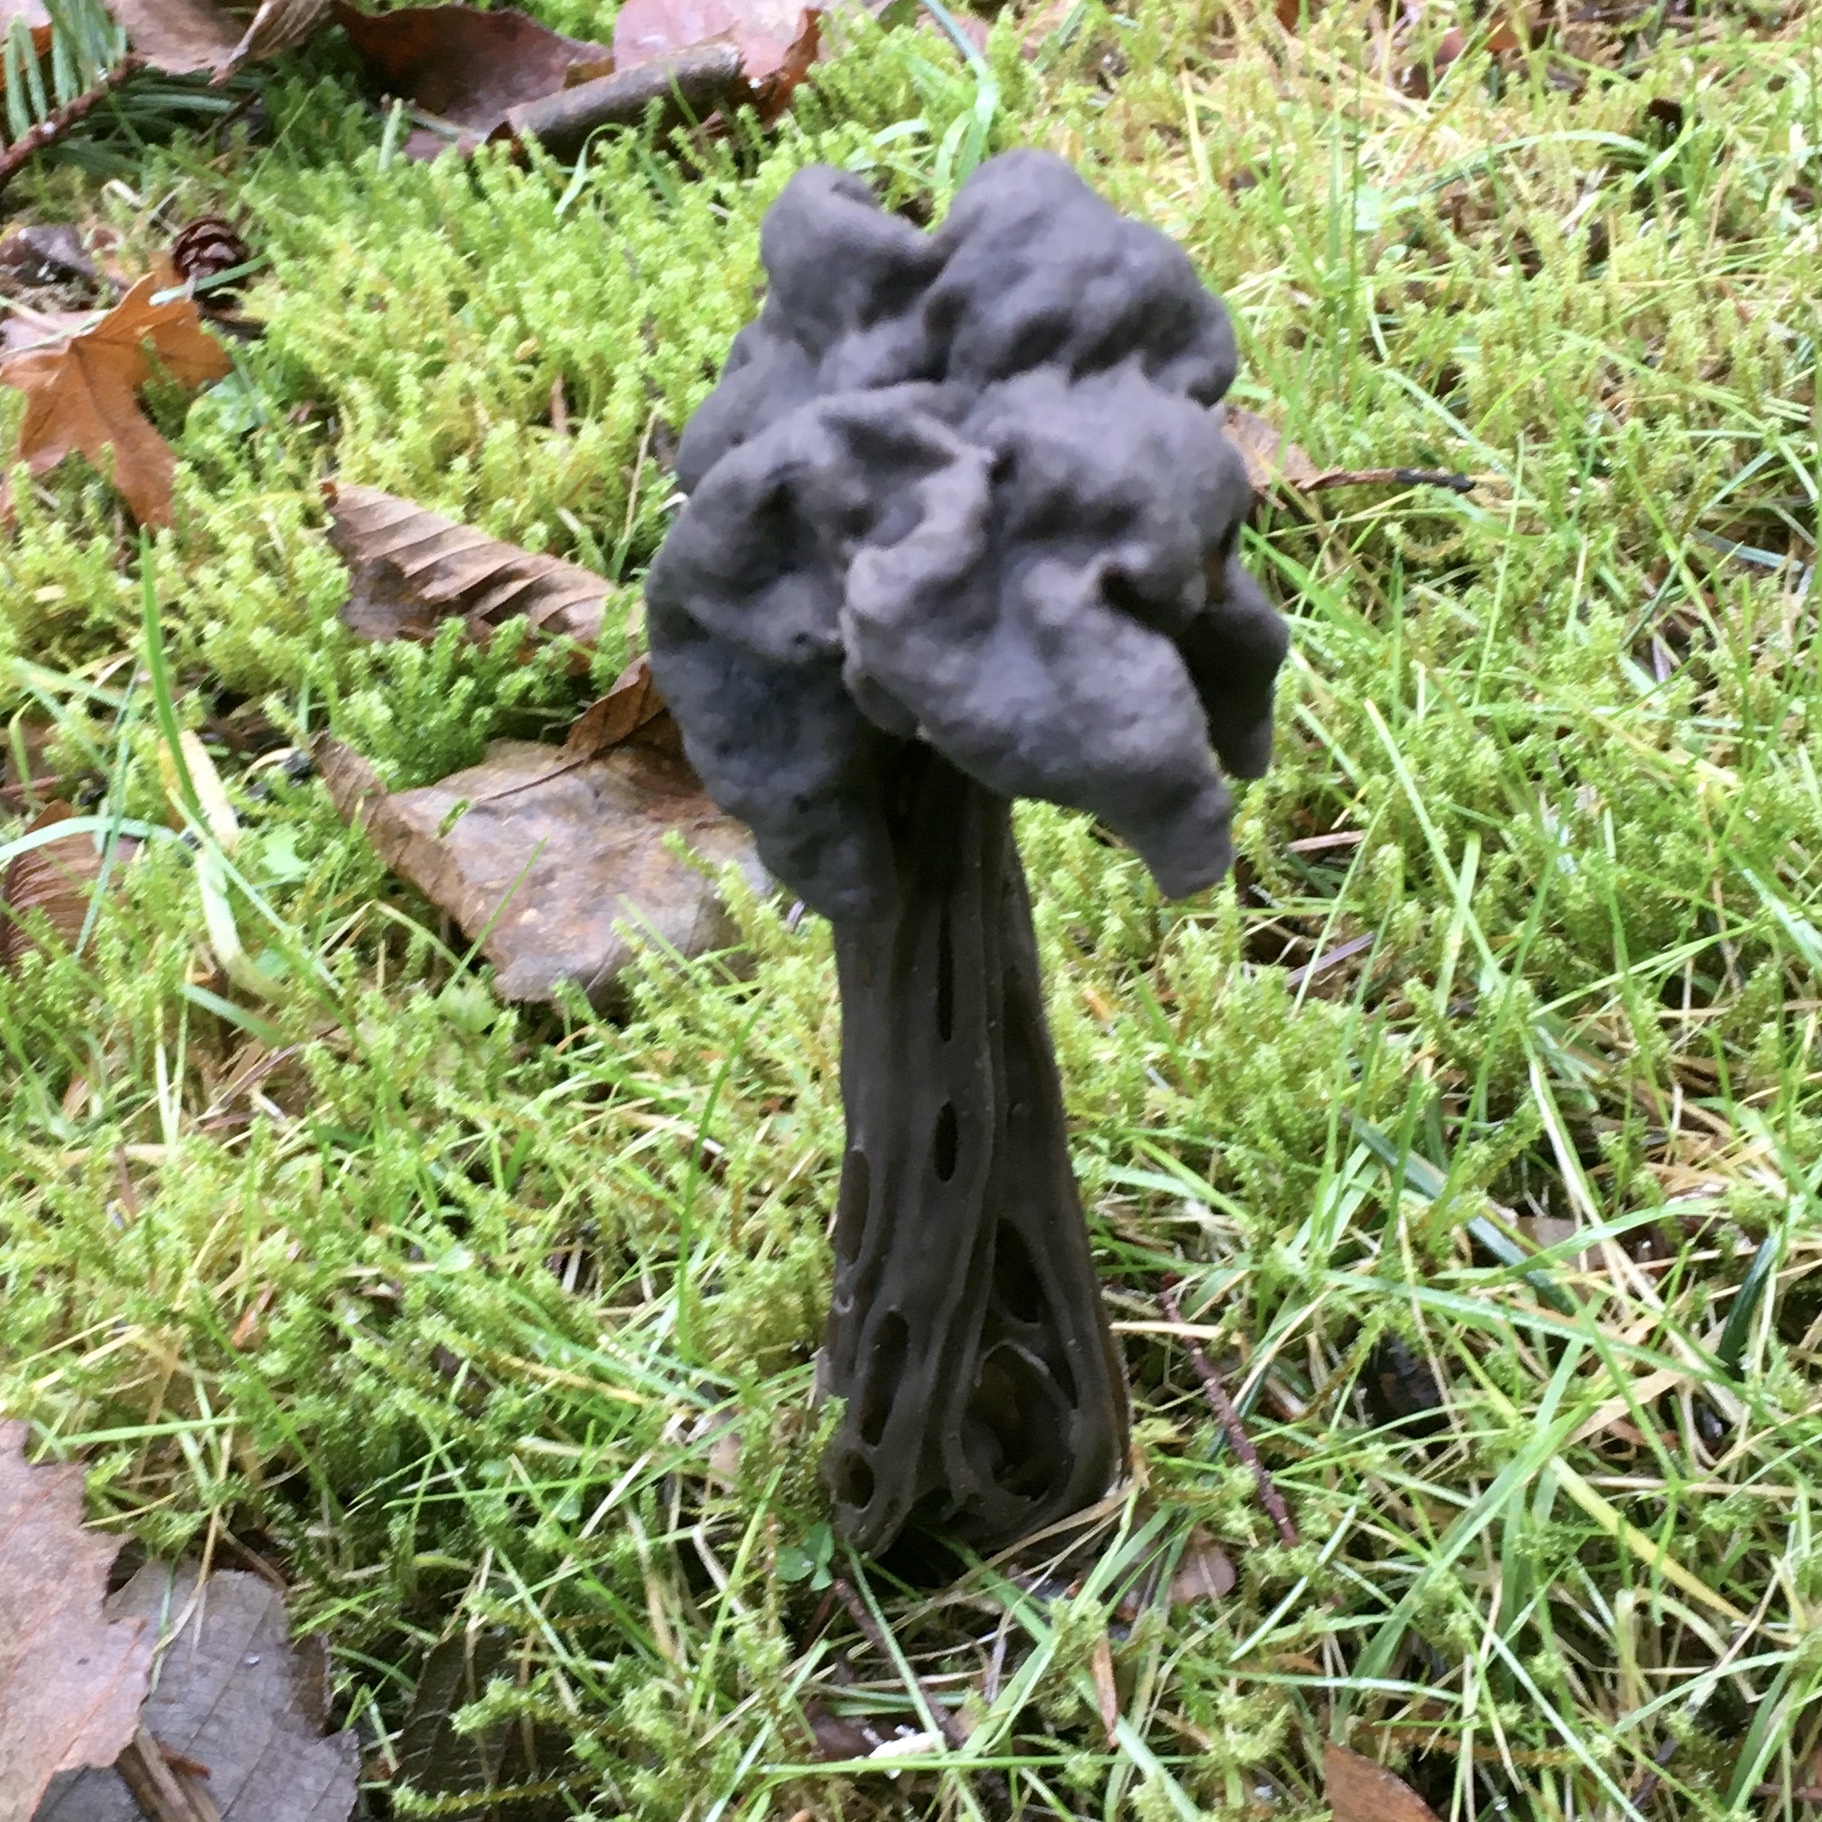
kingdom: Fungi
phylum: Ascomycota
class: Pezizomycetes
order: Pezizales
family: Helvellaceae
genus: Helvella
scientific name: Helvella vespertina
